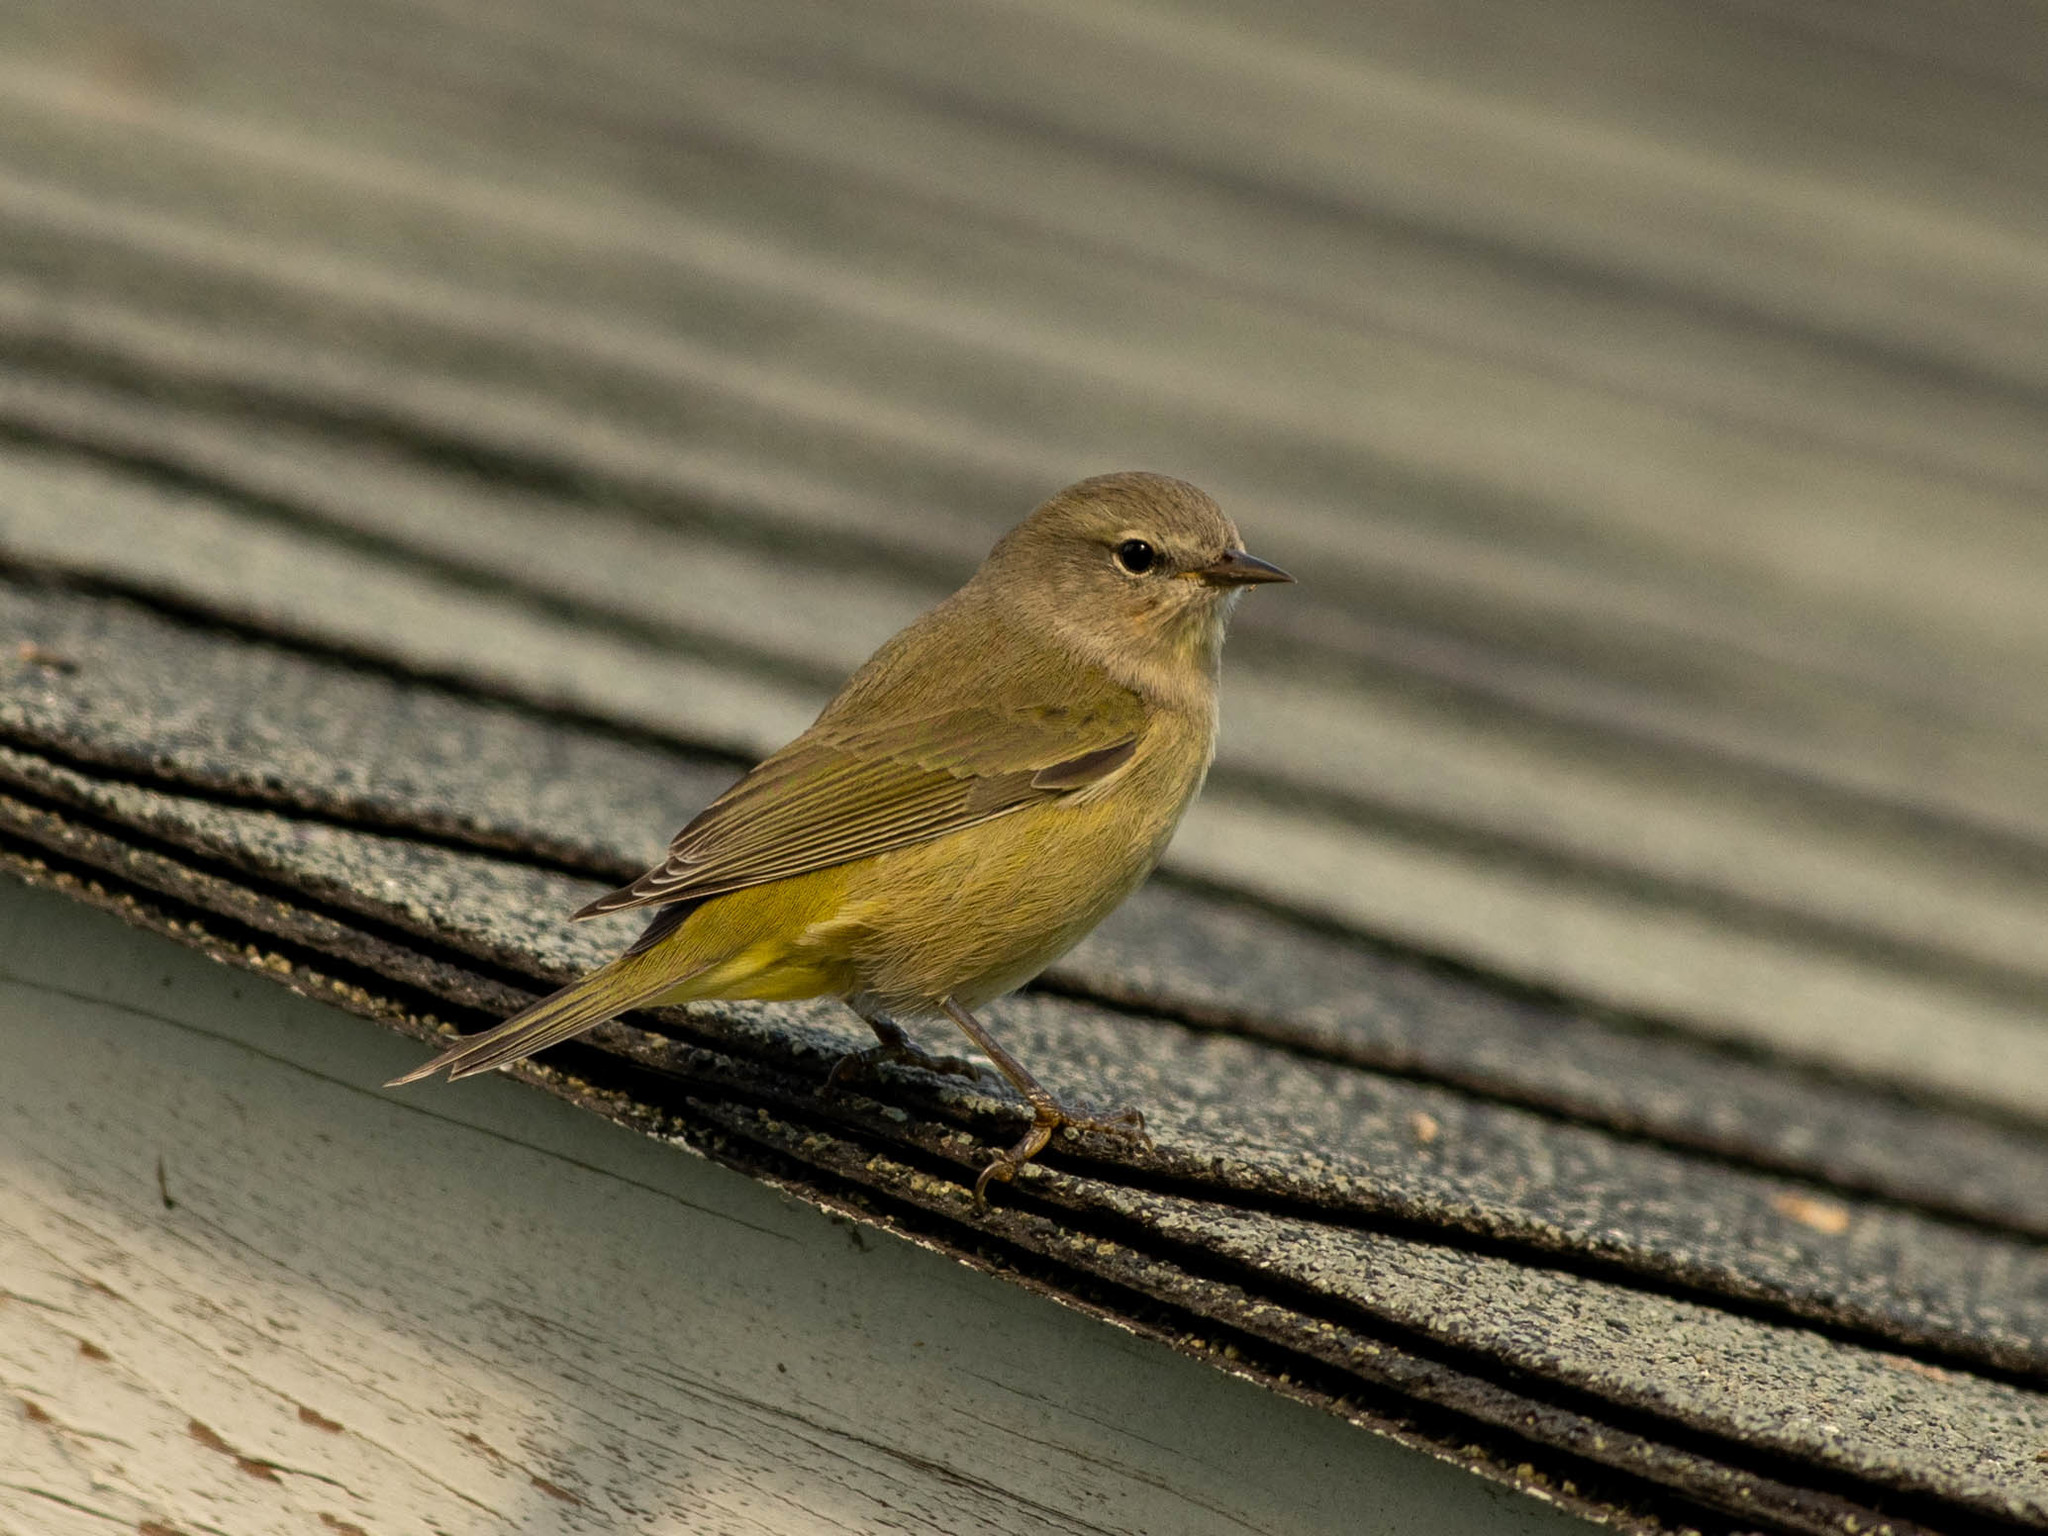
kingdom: Animalia
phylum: Chordata
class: Aves
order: Passeriformes
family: Parulidae
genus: Leiothlypis
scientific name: Leiothlypis celata
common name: Orange-crowned warbler
